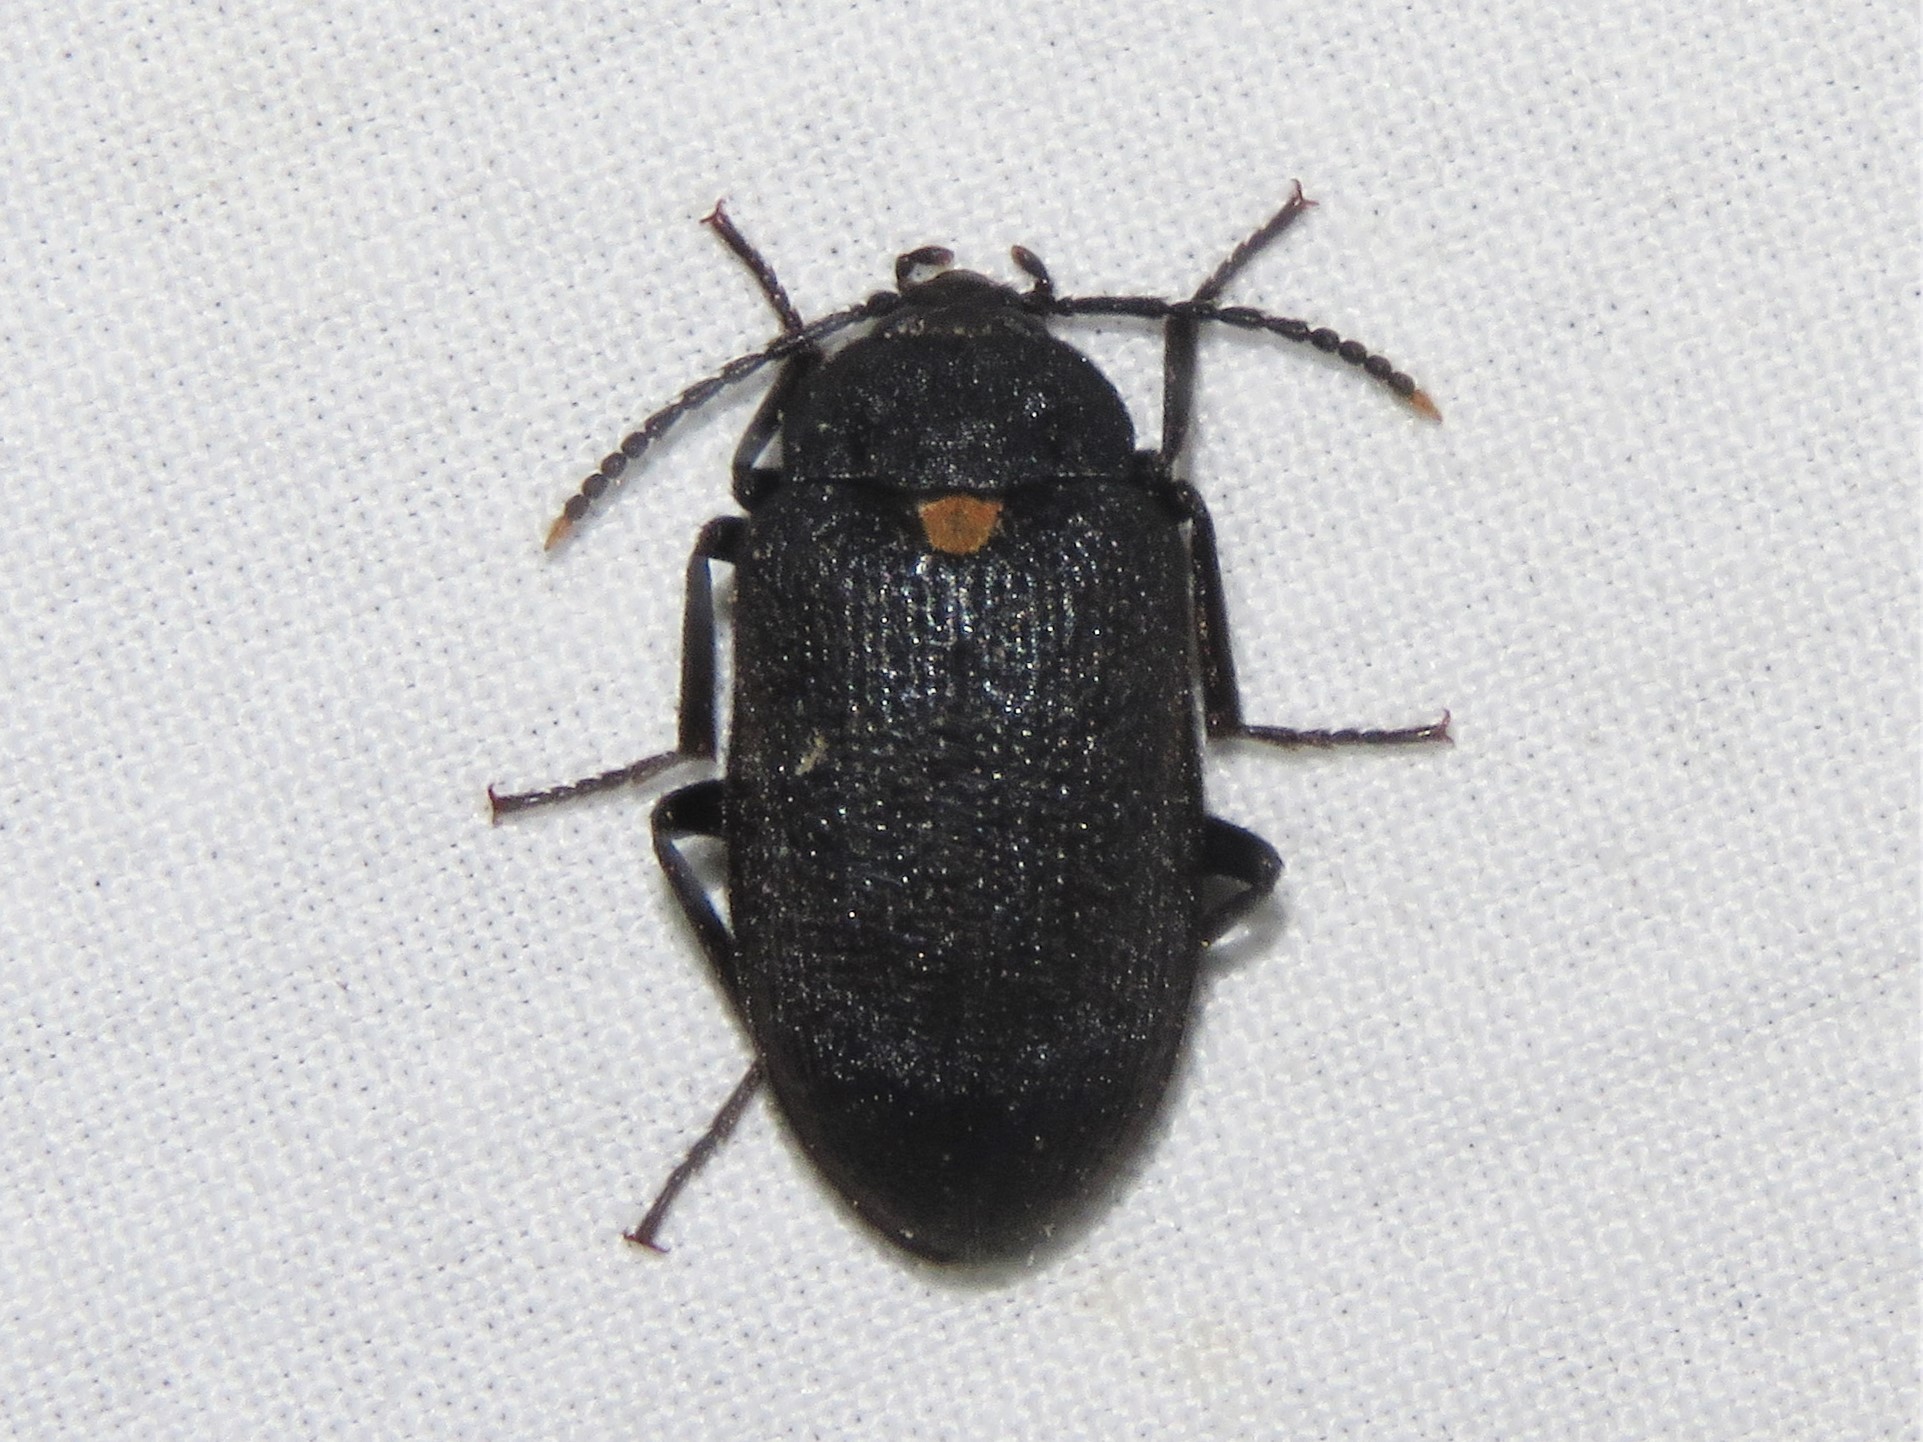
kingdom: Animalia
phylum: Arthropoda
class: Insecta
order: Coleoptera
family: Tetratomidae
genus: Penthe
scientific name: Penthe obliquata
